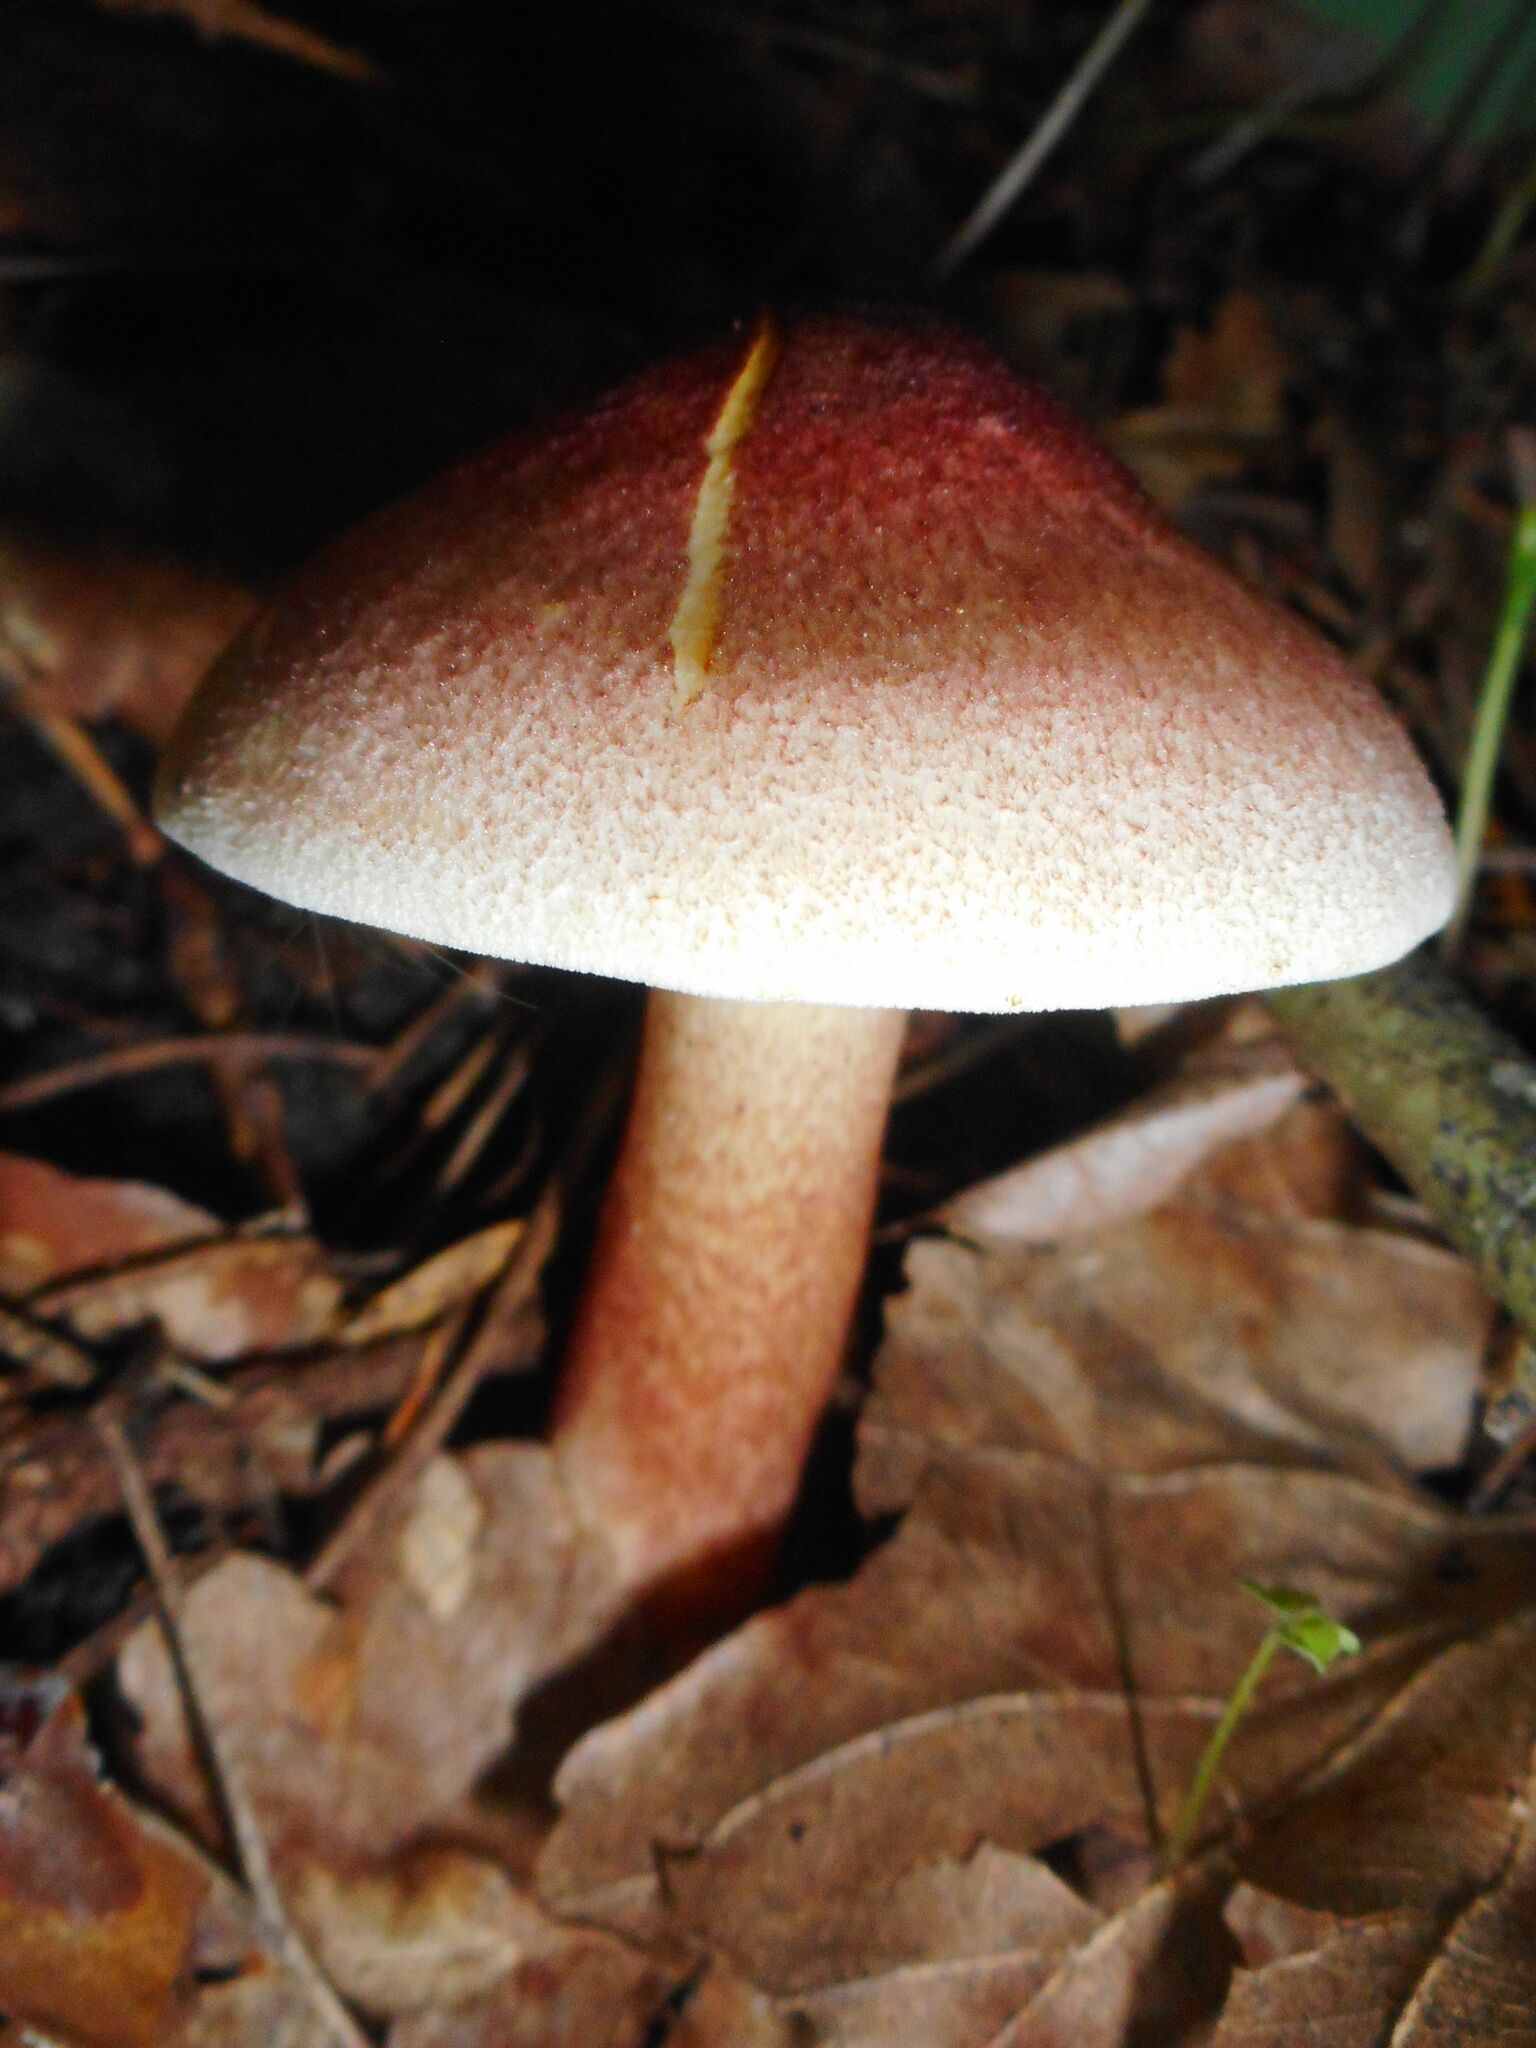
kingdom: Fungi
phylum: Basidiomycota
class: Agaricomycetes
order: Agaricales
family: Tricholomataceae
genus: Tricholomopsis
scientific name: Tricholomopsis rutilans
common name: Plums and custard
